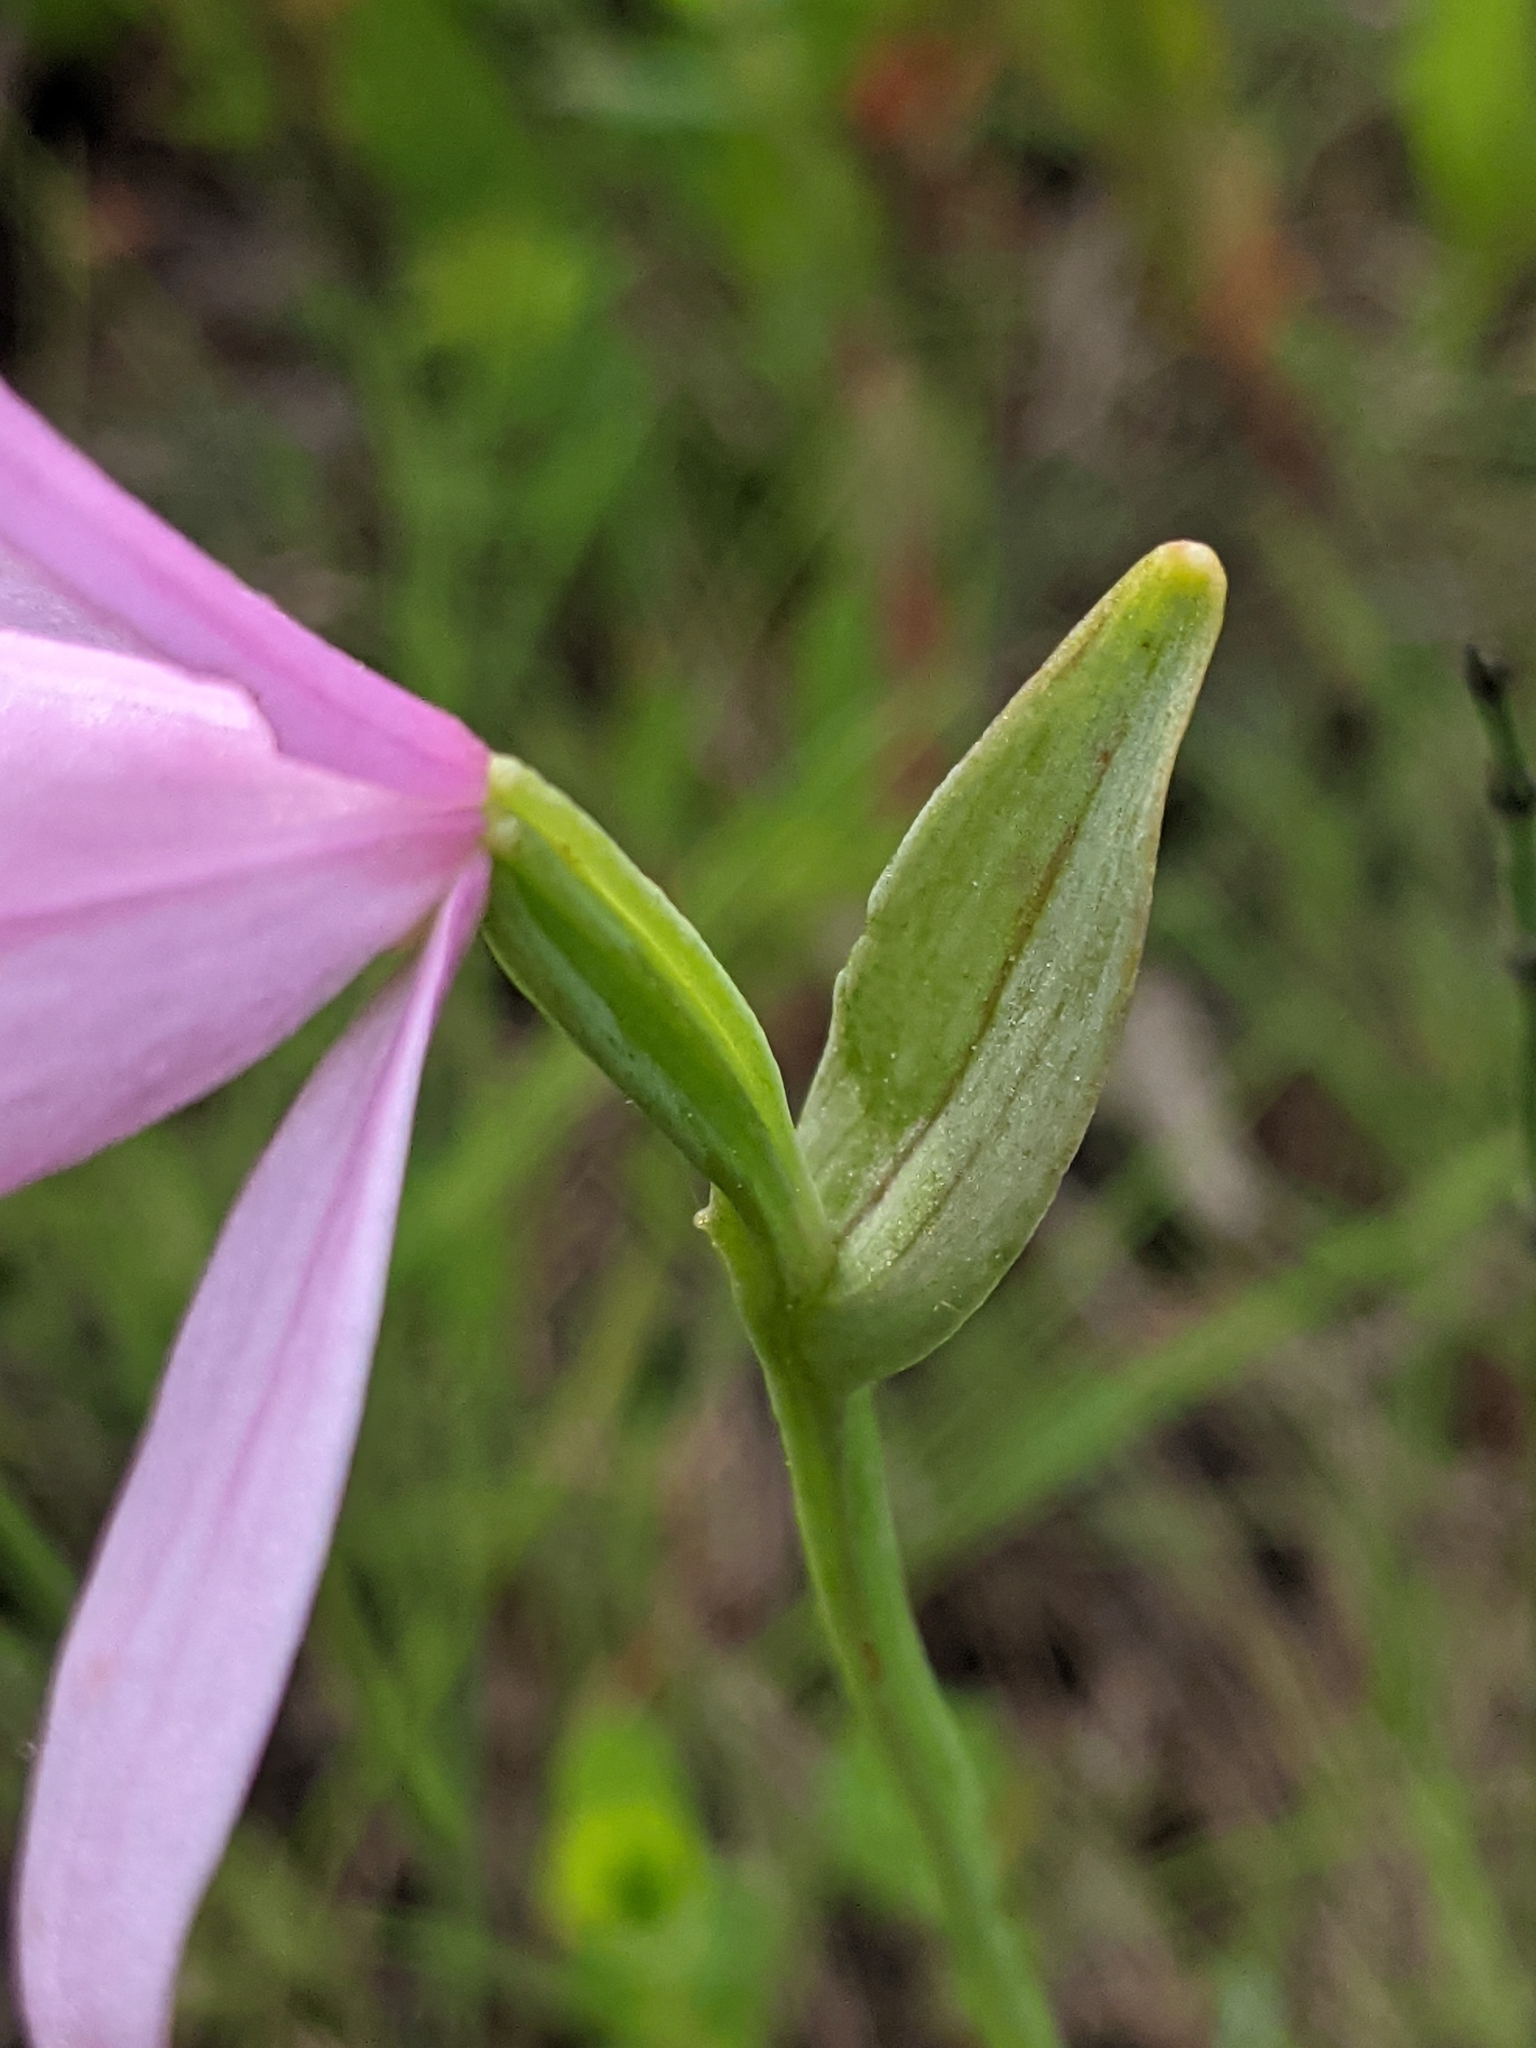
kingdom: Plantae
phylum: Tracheophyta
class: Liliopsida
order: Asparagales
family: Orchidaceae
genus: Pogonia
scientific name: Pogonia ophioglossoides
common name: Rose pogonia
